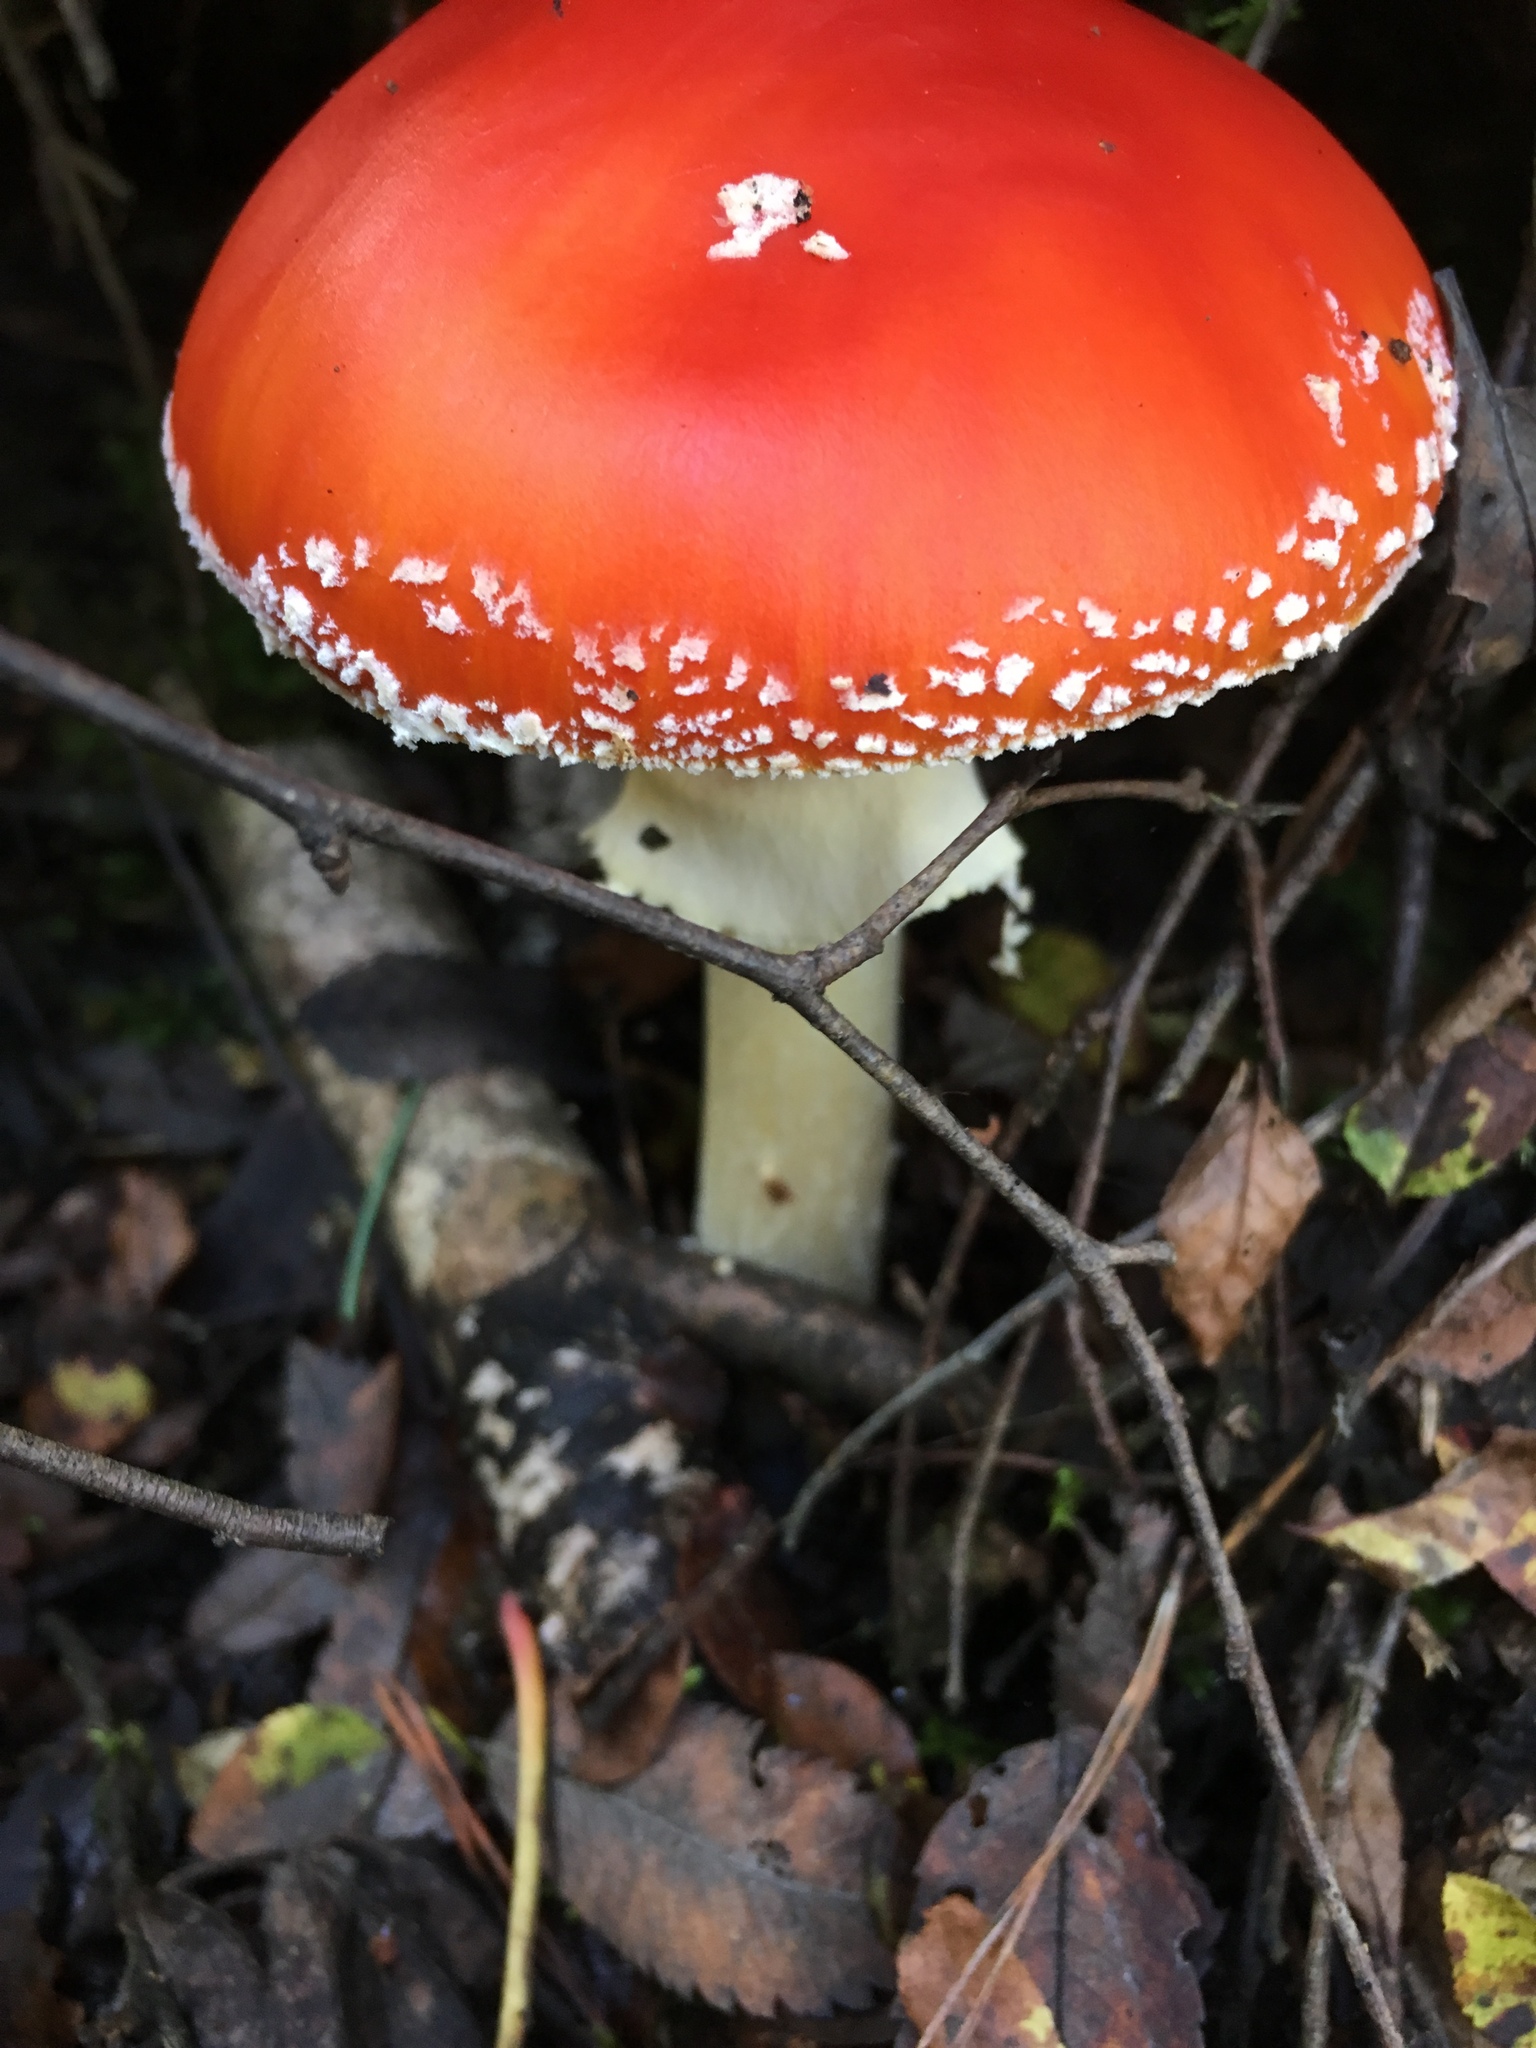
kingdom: Fungi
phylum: Basidiomycota
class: Agaricomycetes
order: Agaricales
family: Amanitaceae
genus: Amanita
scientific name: Amanita muscaria
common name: Fly agaric
